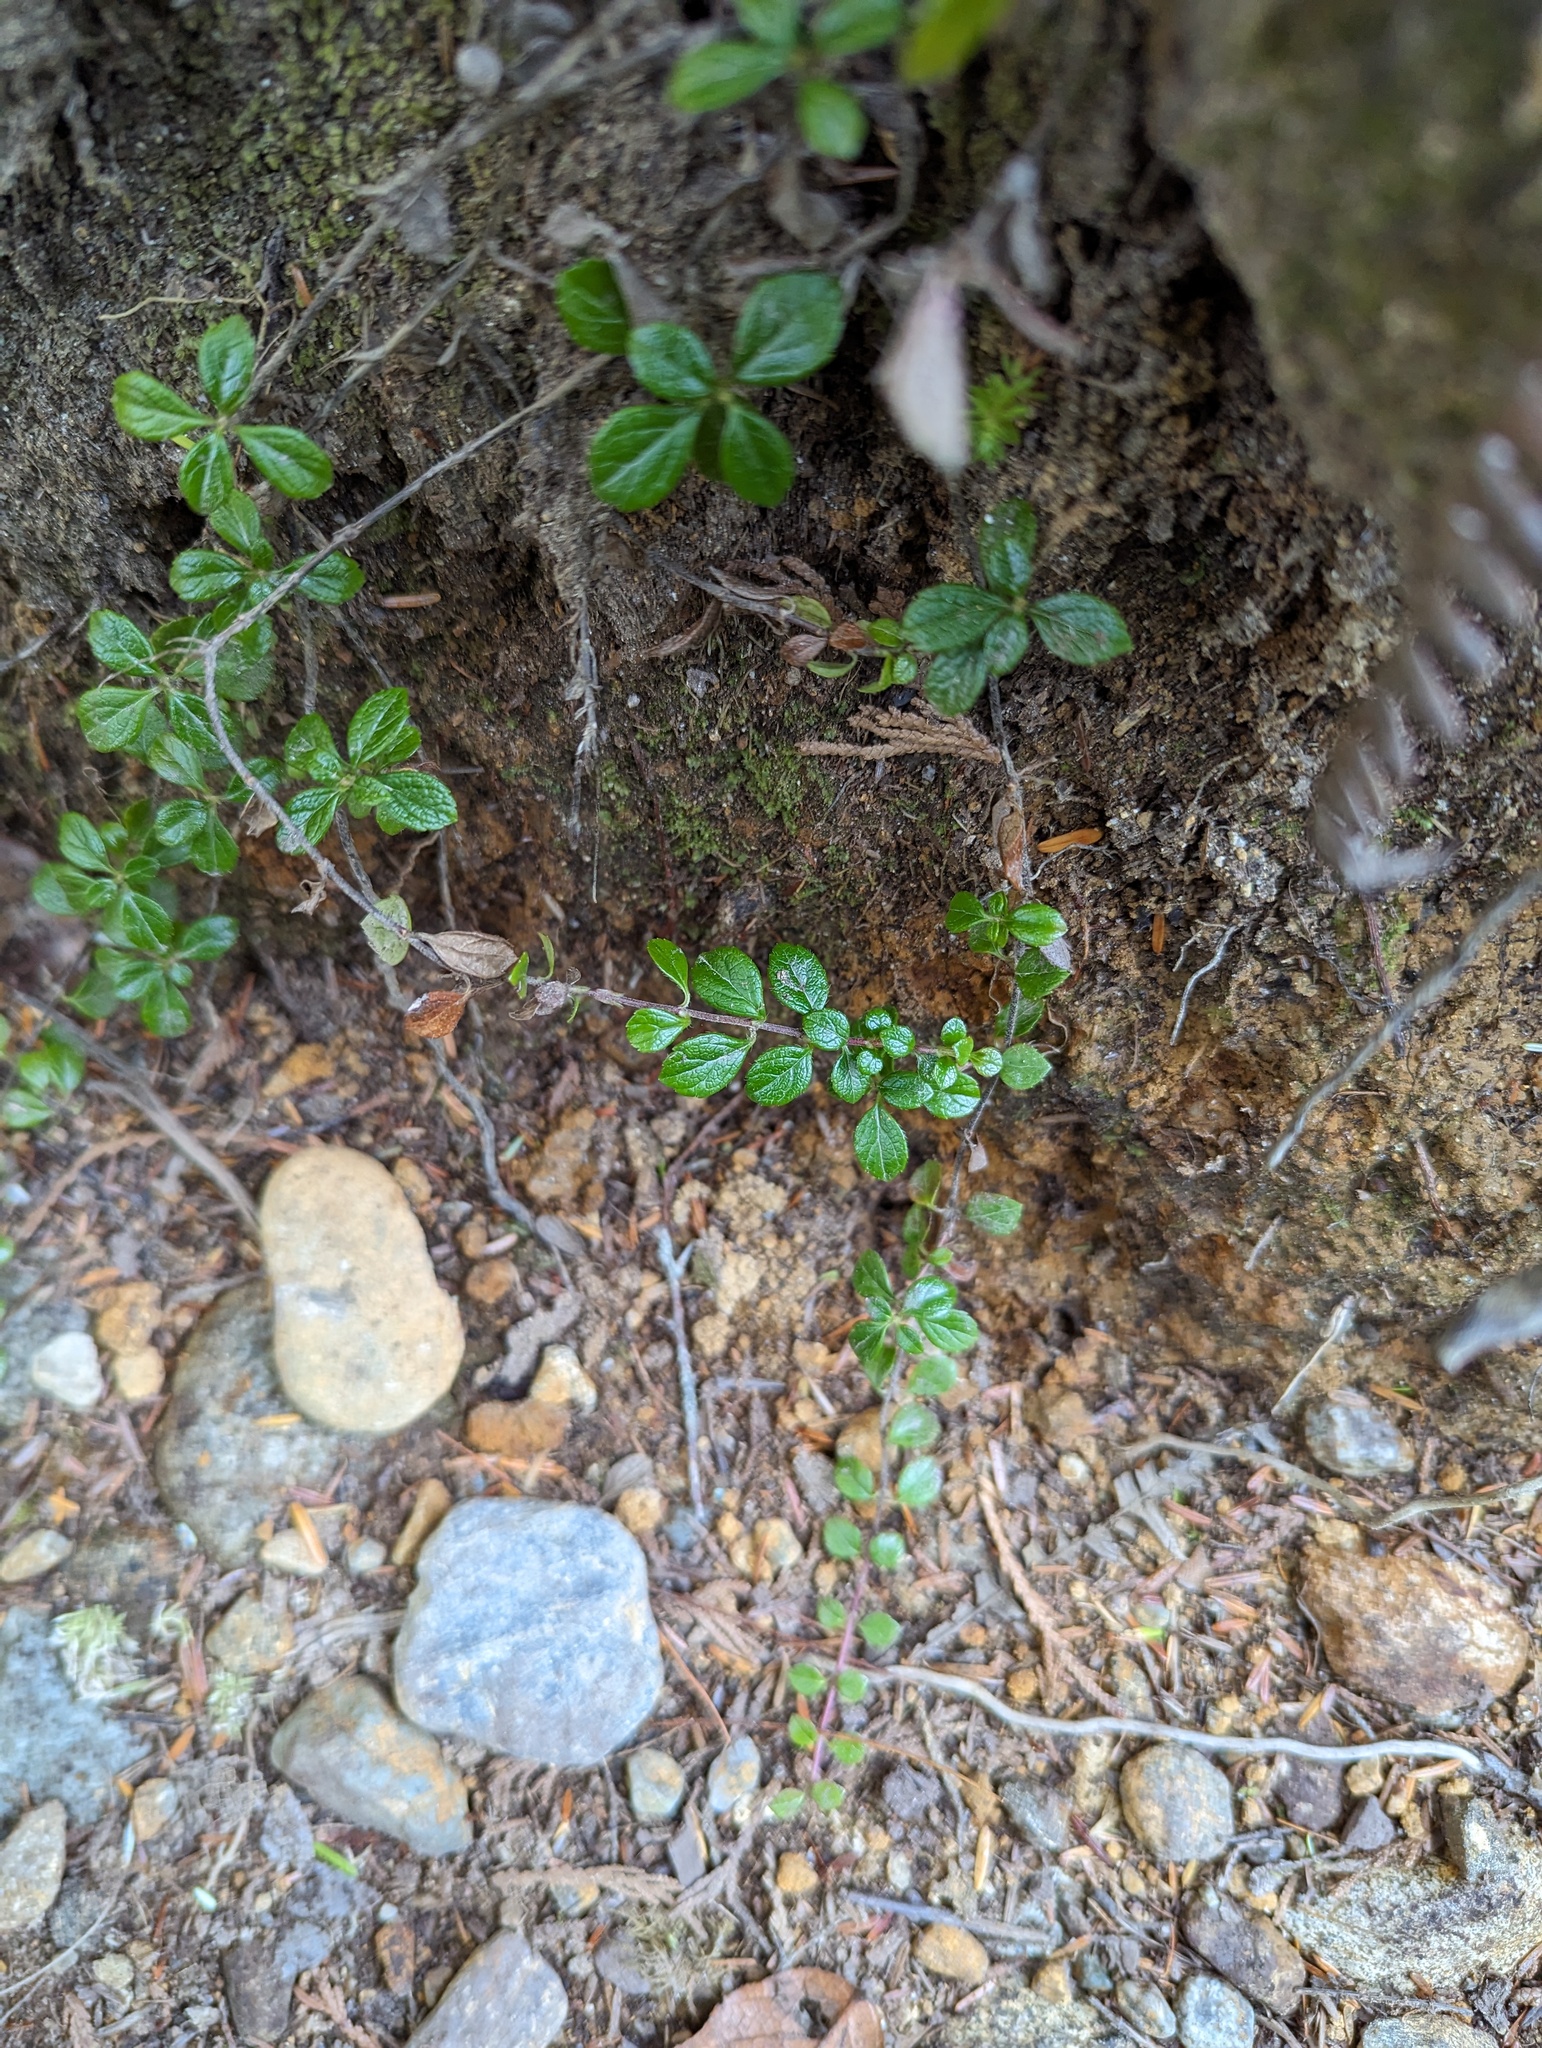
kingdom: Plantae
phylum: Tracheophyta
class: Magnoliopsida
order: Dipsacales
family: Caprifoliaceae
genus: Linnaea
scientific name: Linnaea borealis
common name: Twinflower
